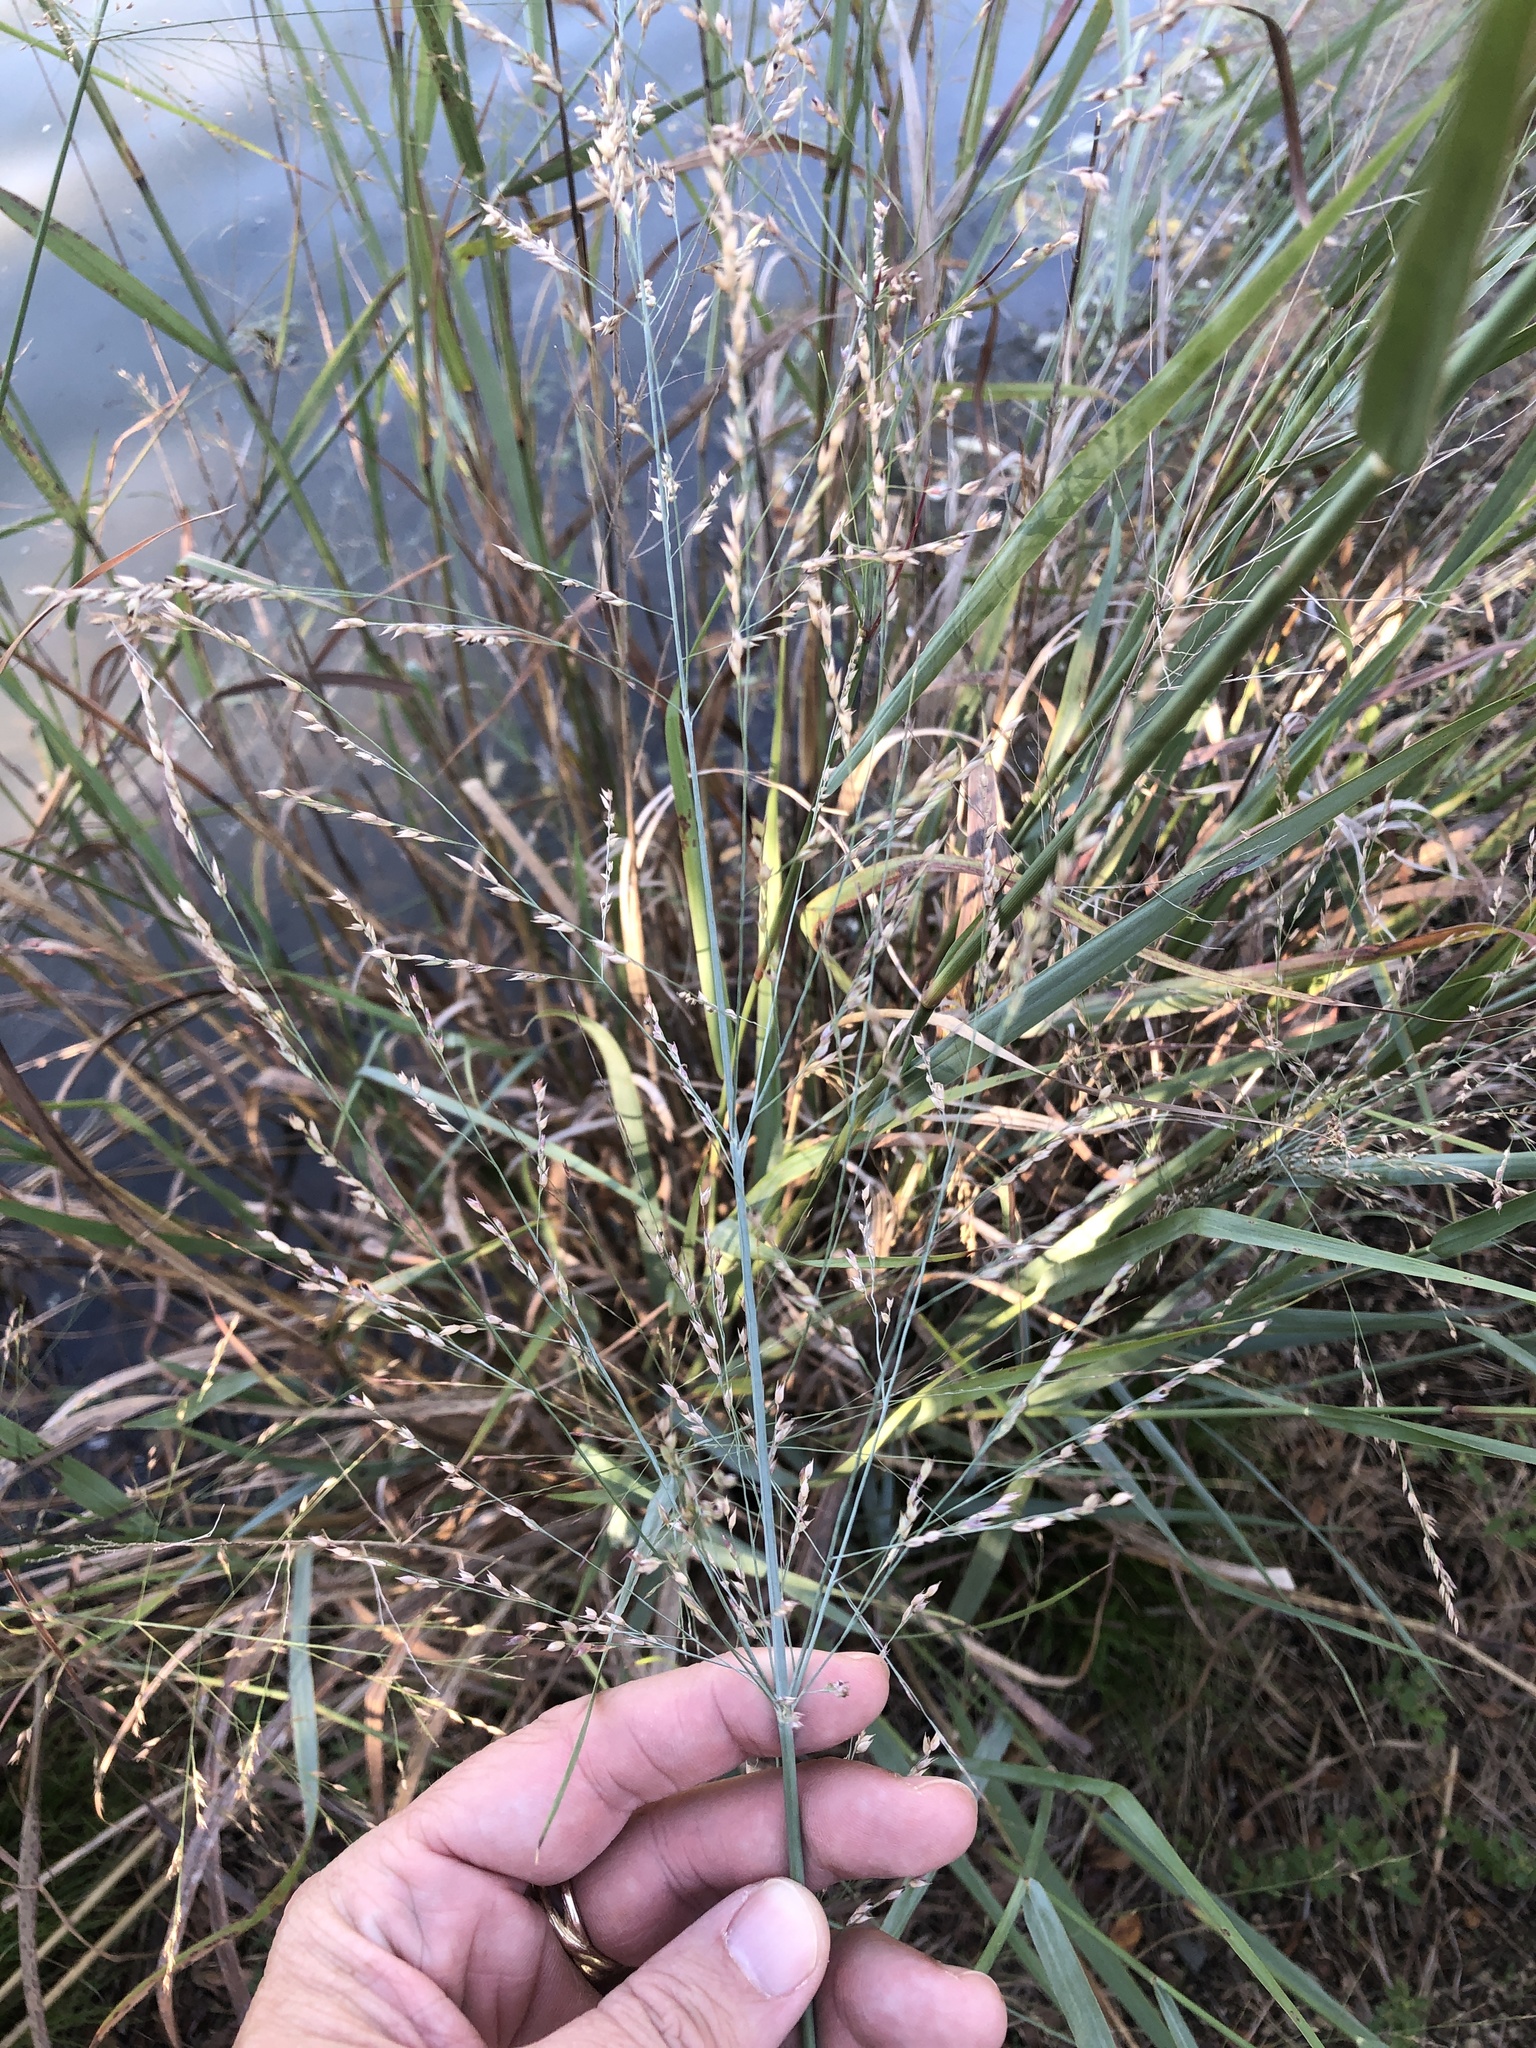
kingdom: Plantae
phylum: Tracheophyta
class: Liliopsida
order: Poales
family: Poaceae
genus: Panicum
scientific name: Panicum virgatum
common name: Switchgrass
